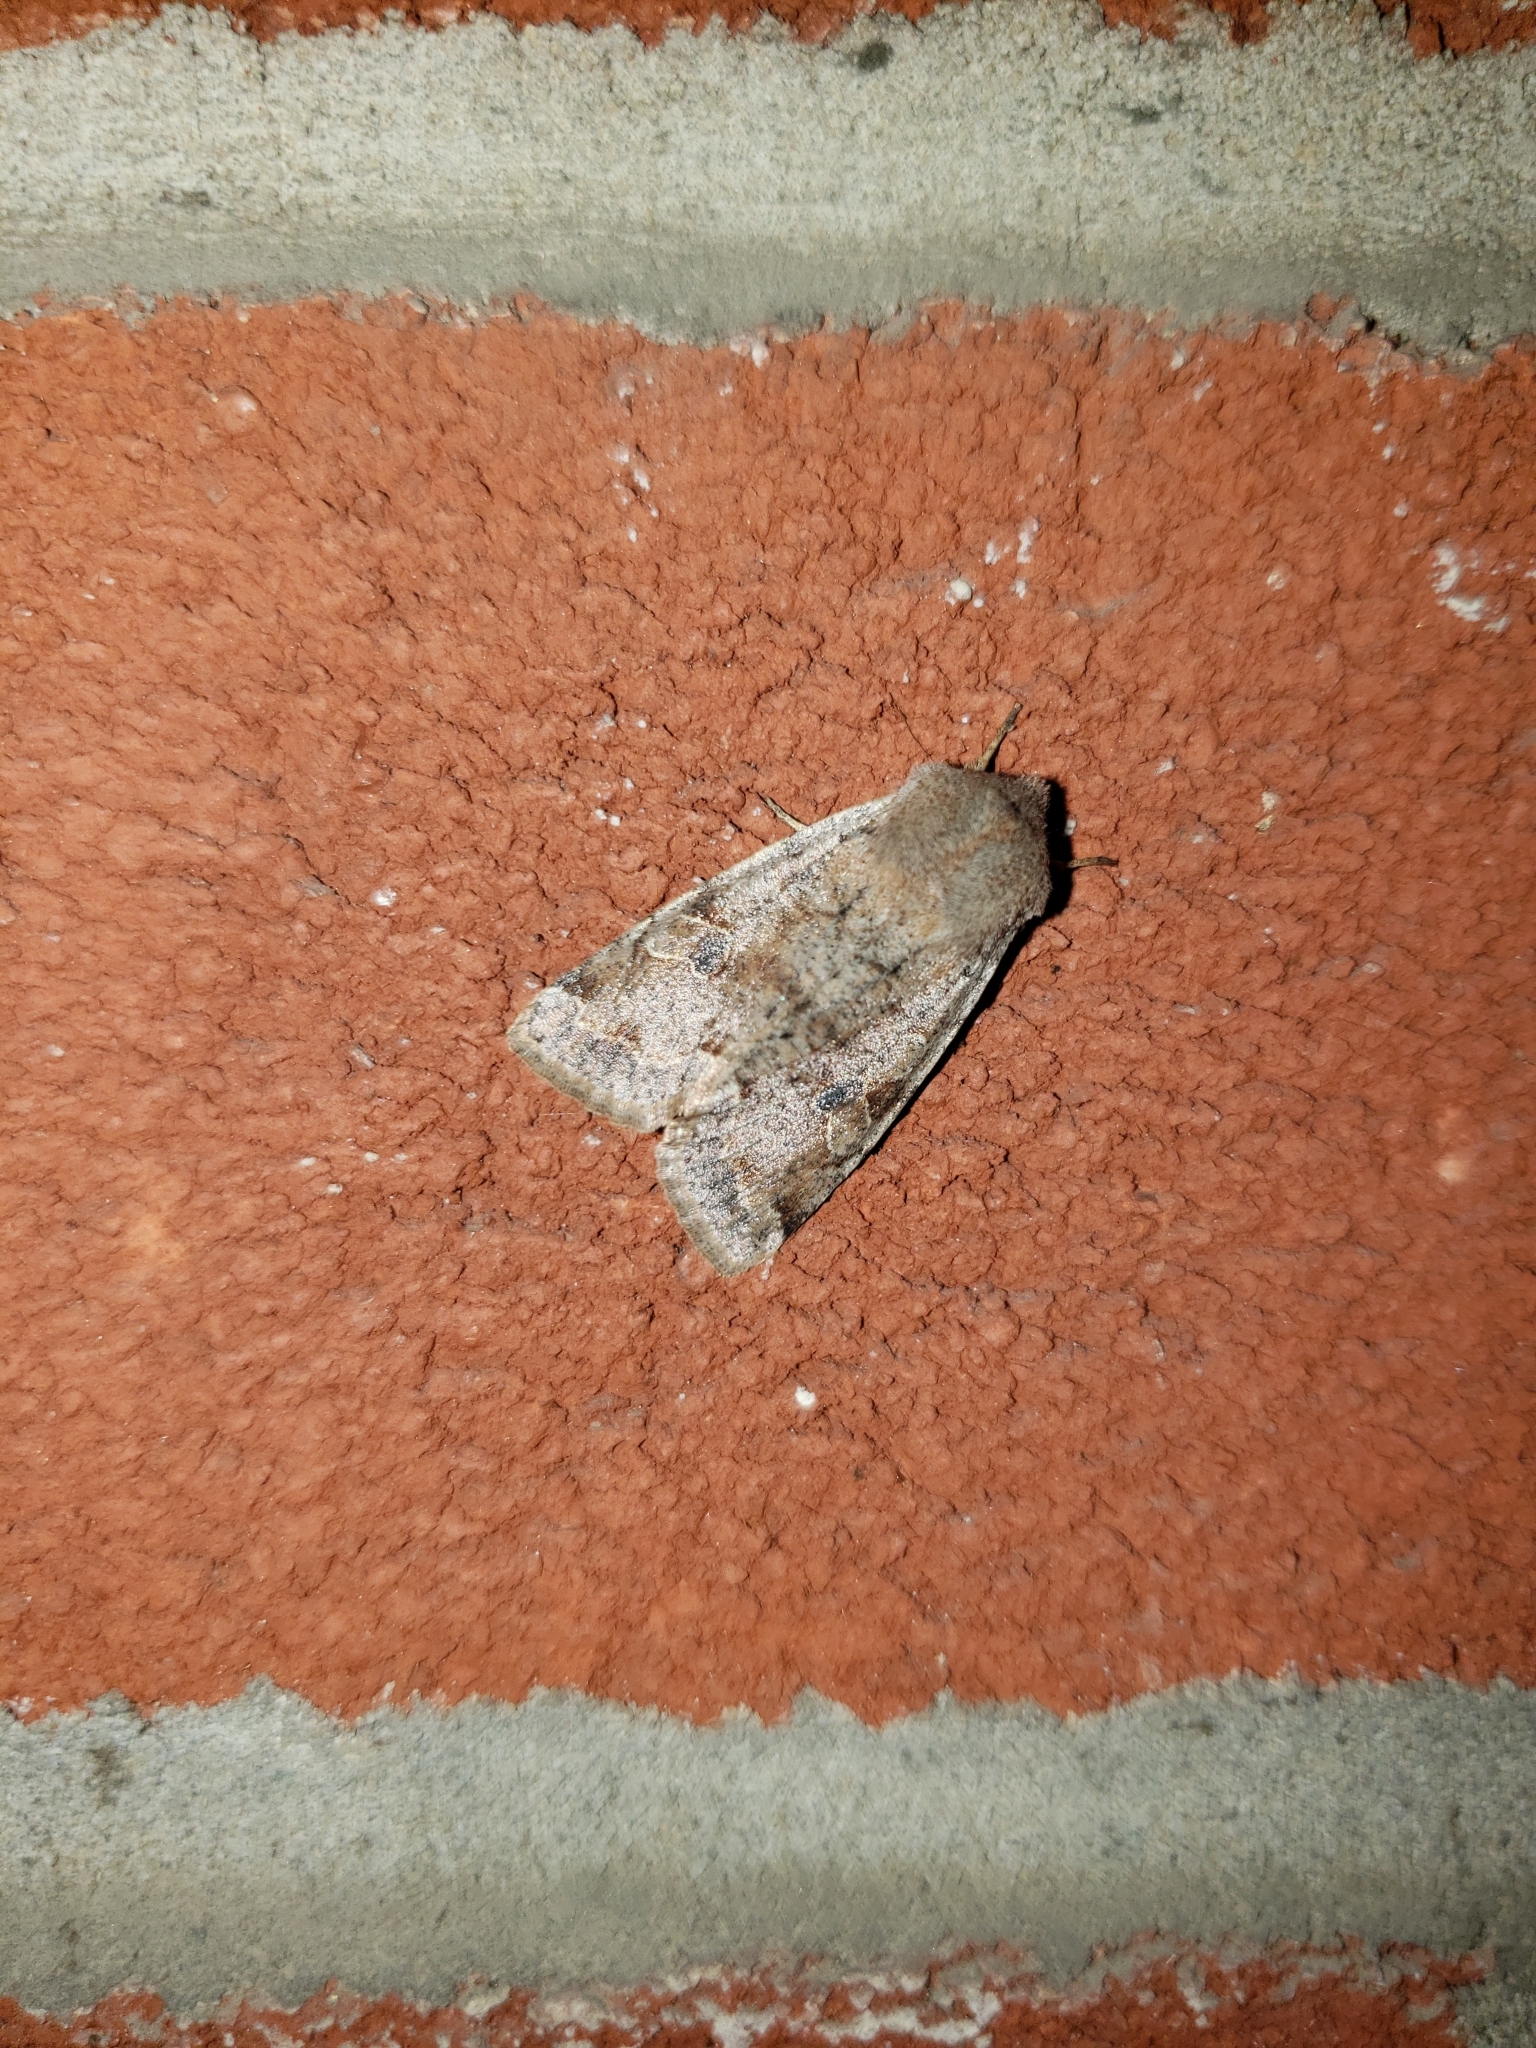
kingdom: Animalia
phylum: Arthropoda
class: Insecta
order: Lepidoptera
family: Noctuidae
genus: Orthosia
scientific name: Orthosia hibisci
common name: Green fruitworm
